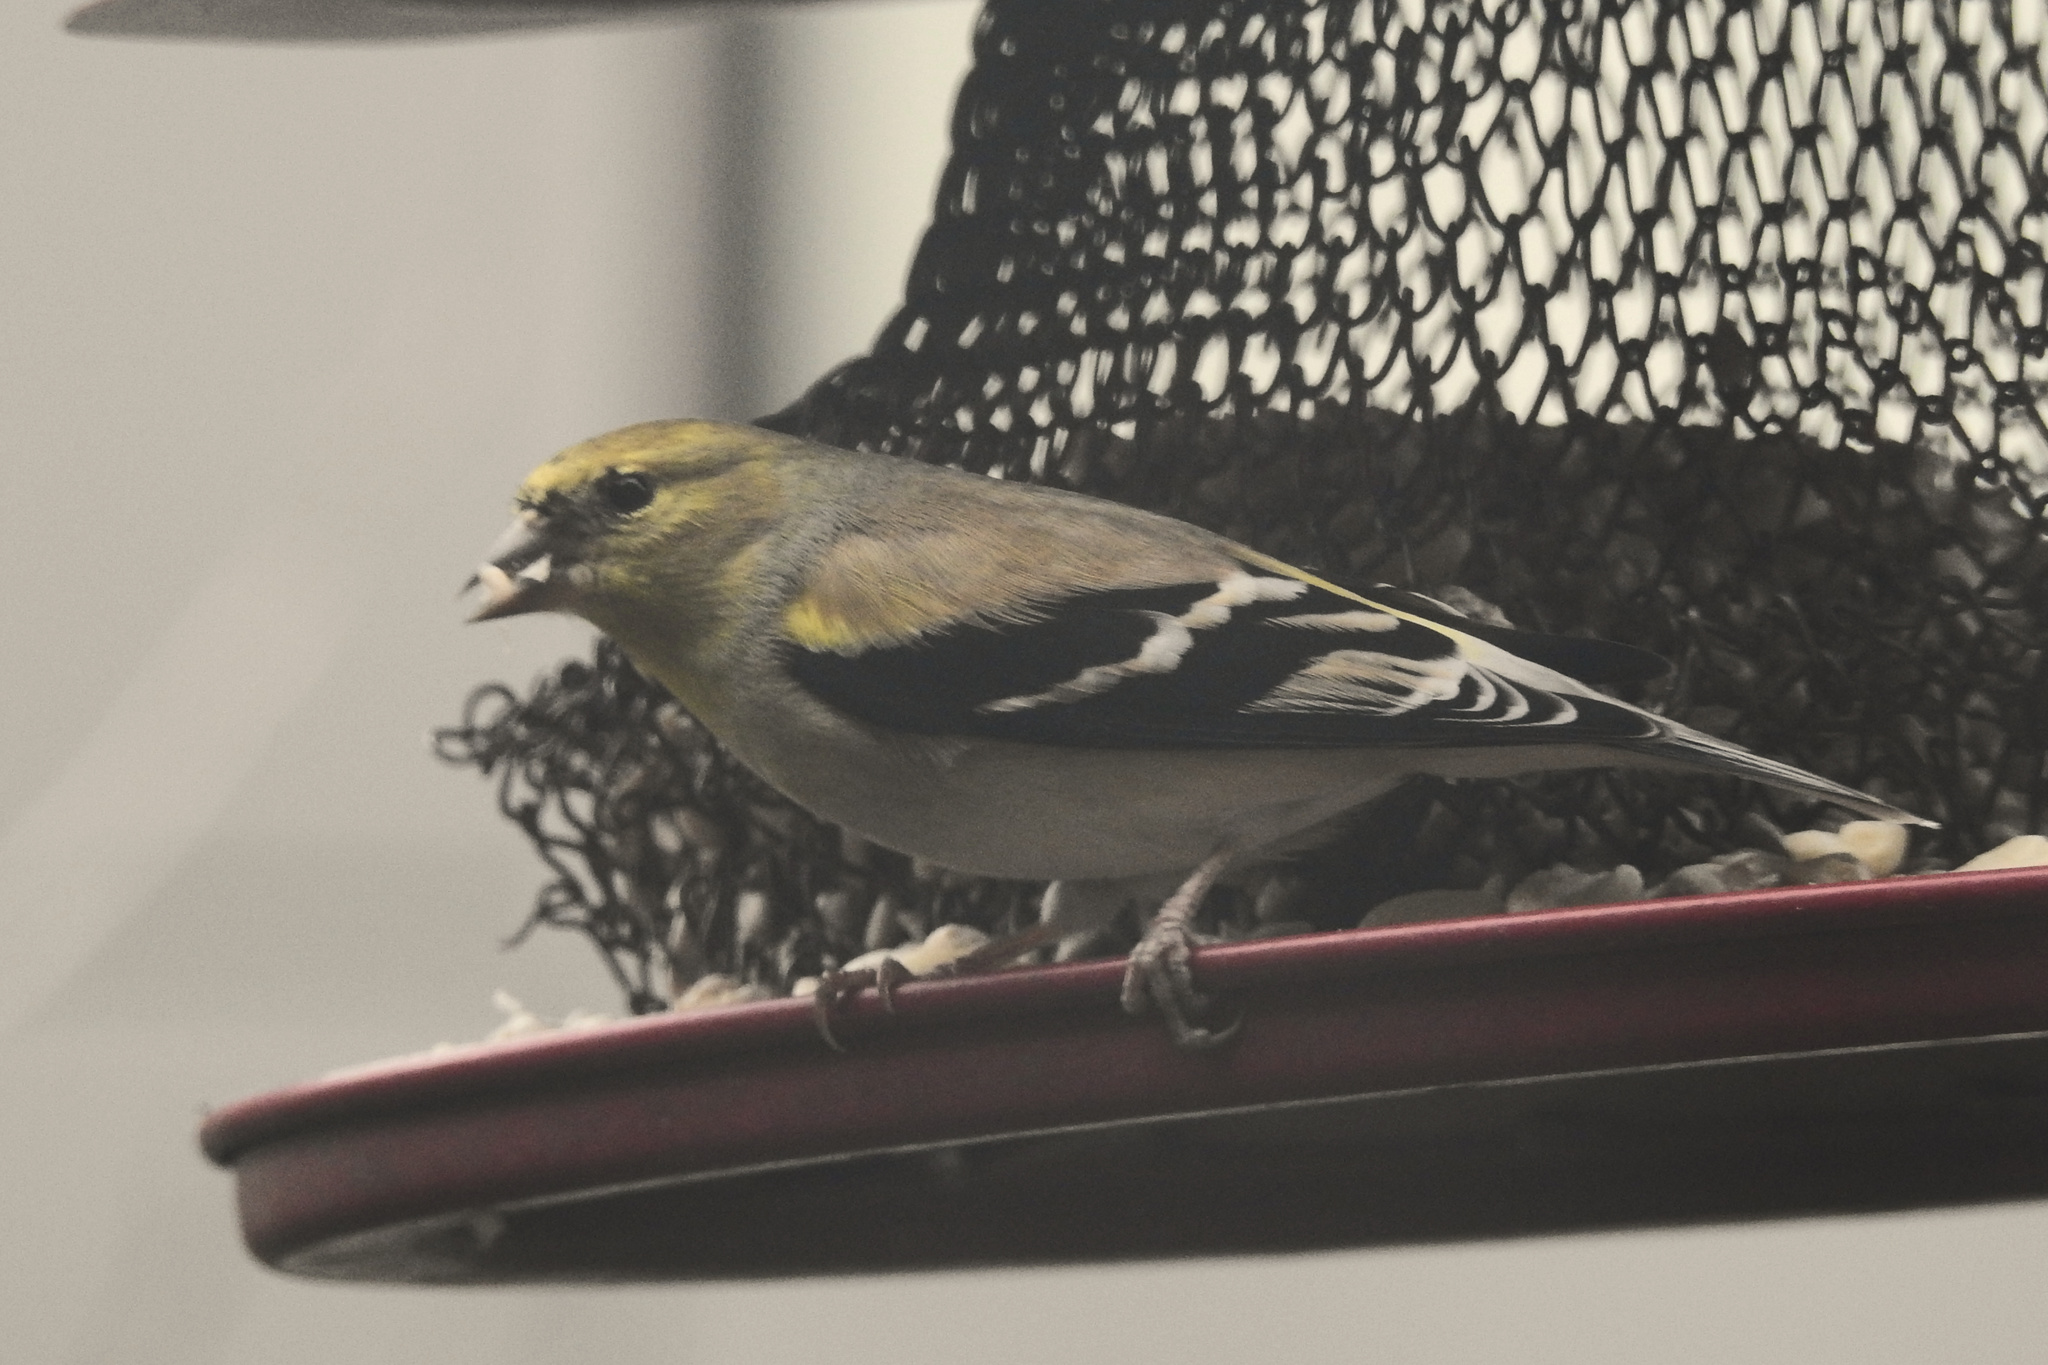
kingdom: Animalia
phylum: Chordata
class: Aves
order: Passeriformes
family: Fringillidae
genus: Spinus
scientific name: Spinus tristis
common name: American goldfinch
